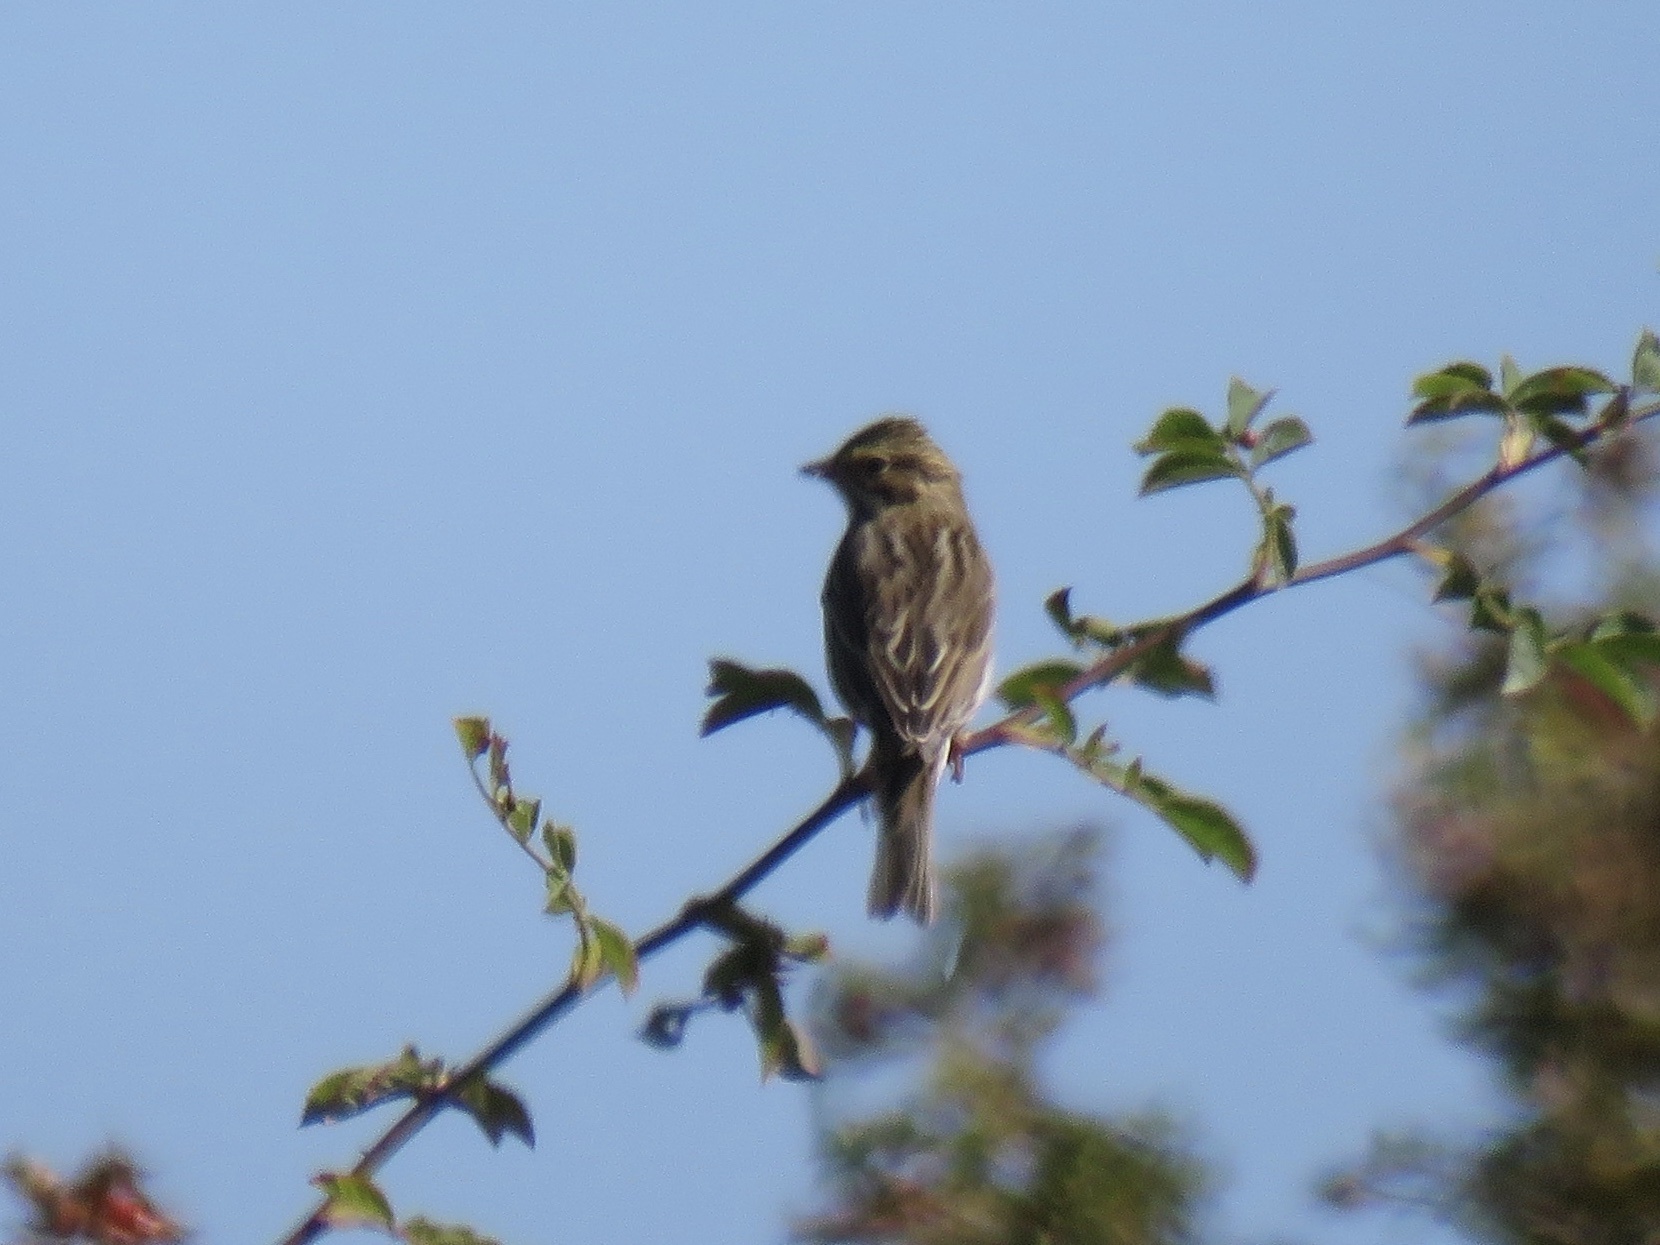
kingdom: Animalia
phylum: Chordata
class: Aves
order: Passeriformes
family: Passerellidae
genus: Passerculus
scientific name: Passerculus sandwichensis
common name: Savannah sparrow
